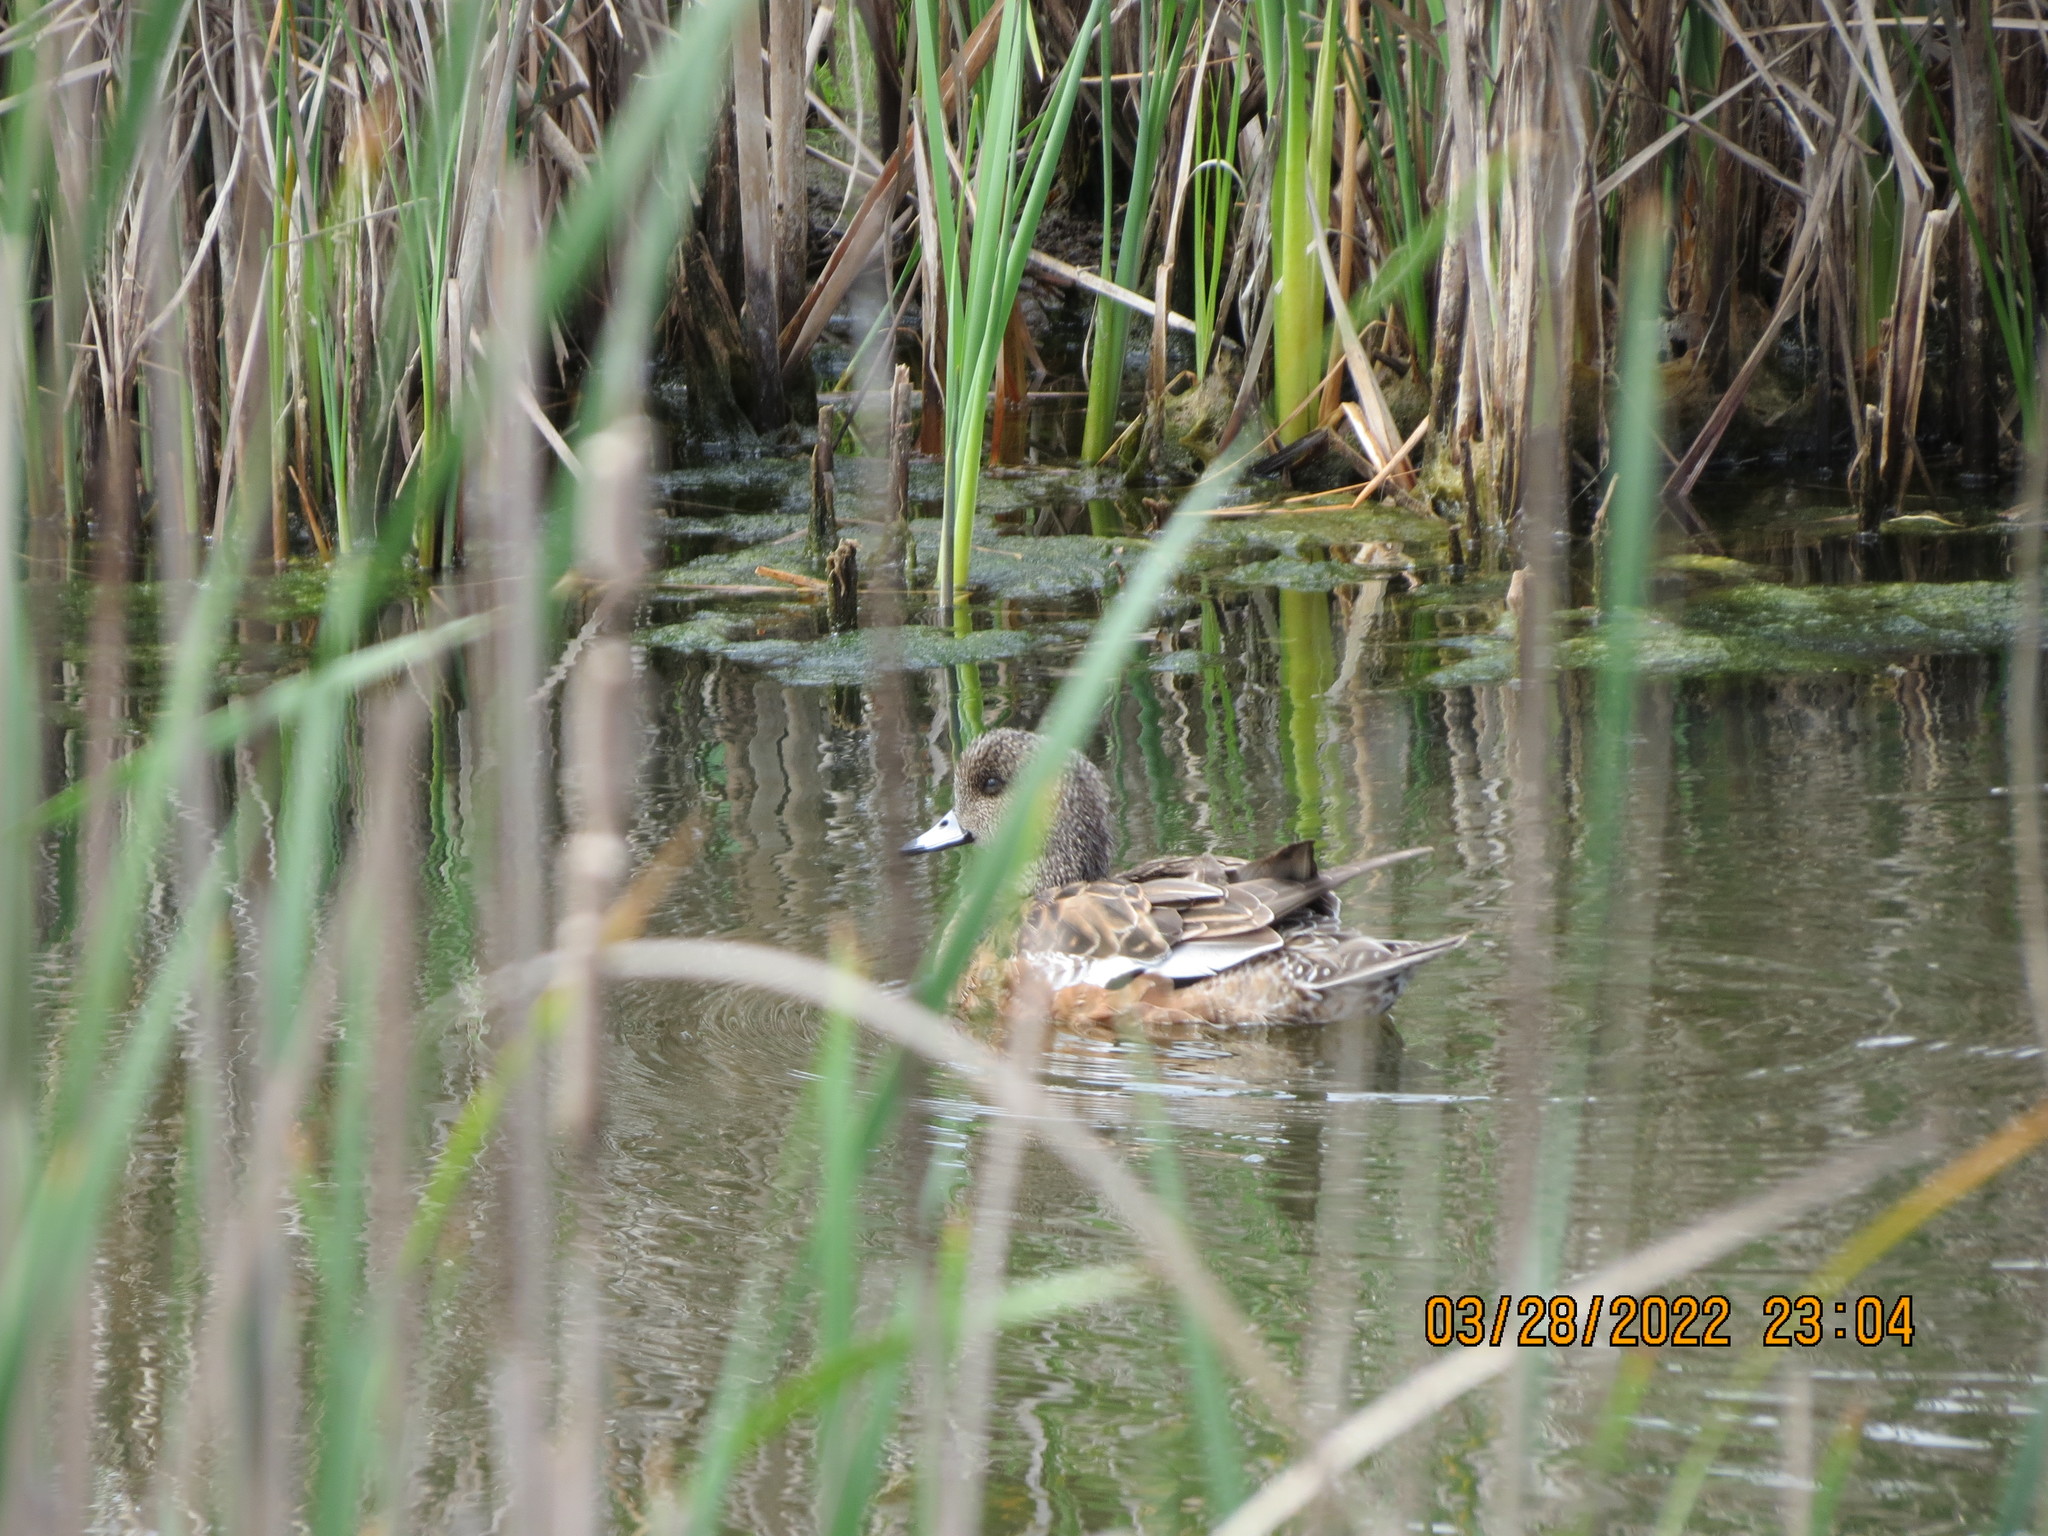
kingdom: Animalia
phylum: Chordata
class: Aves
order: Anseriformes
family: Anatidae
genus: Mareca
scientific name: Mareca americana
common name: American wigeon
